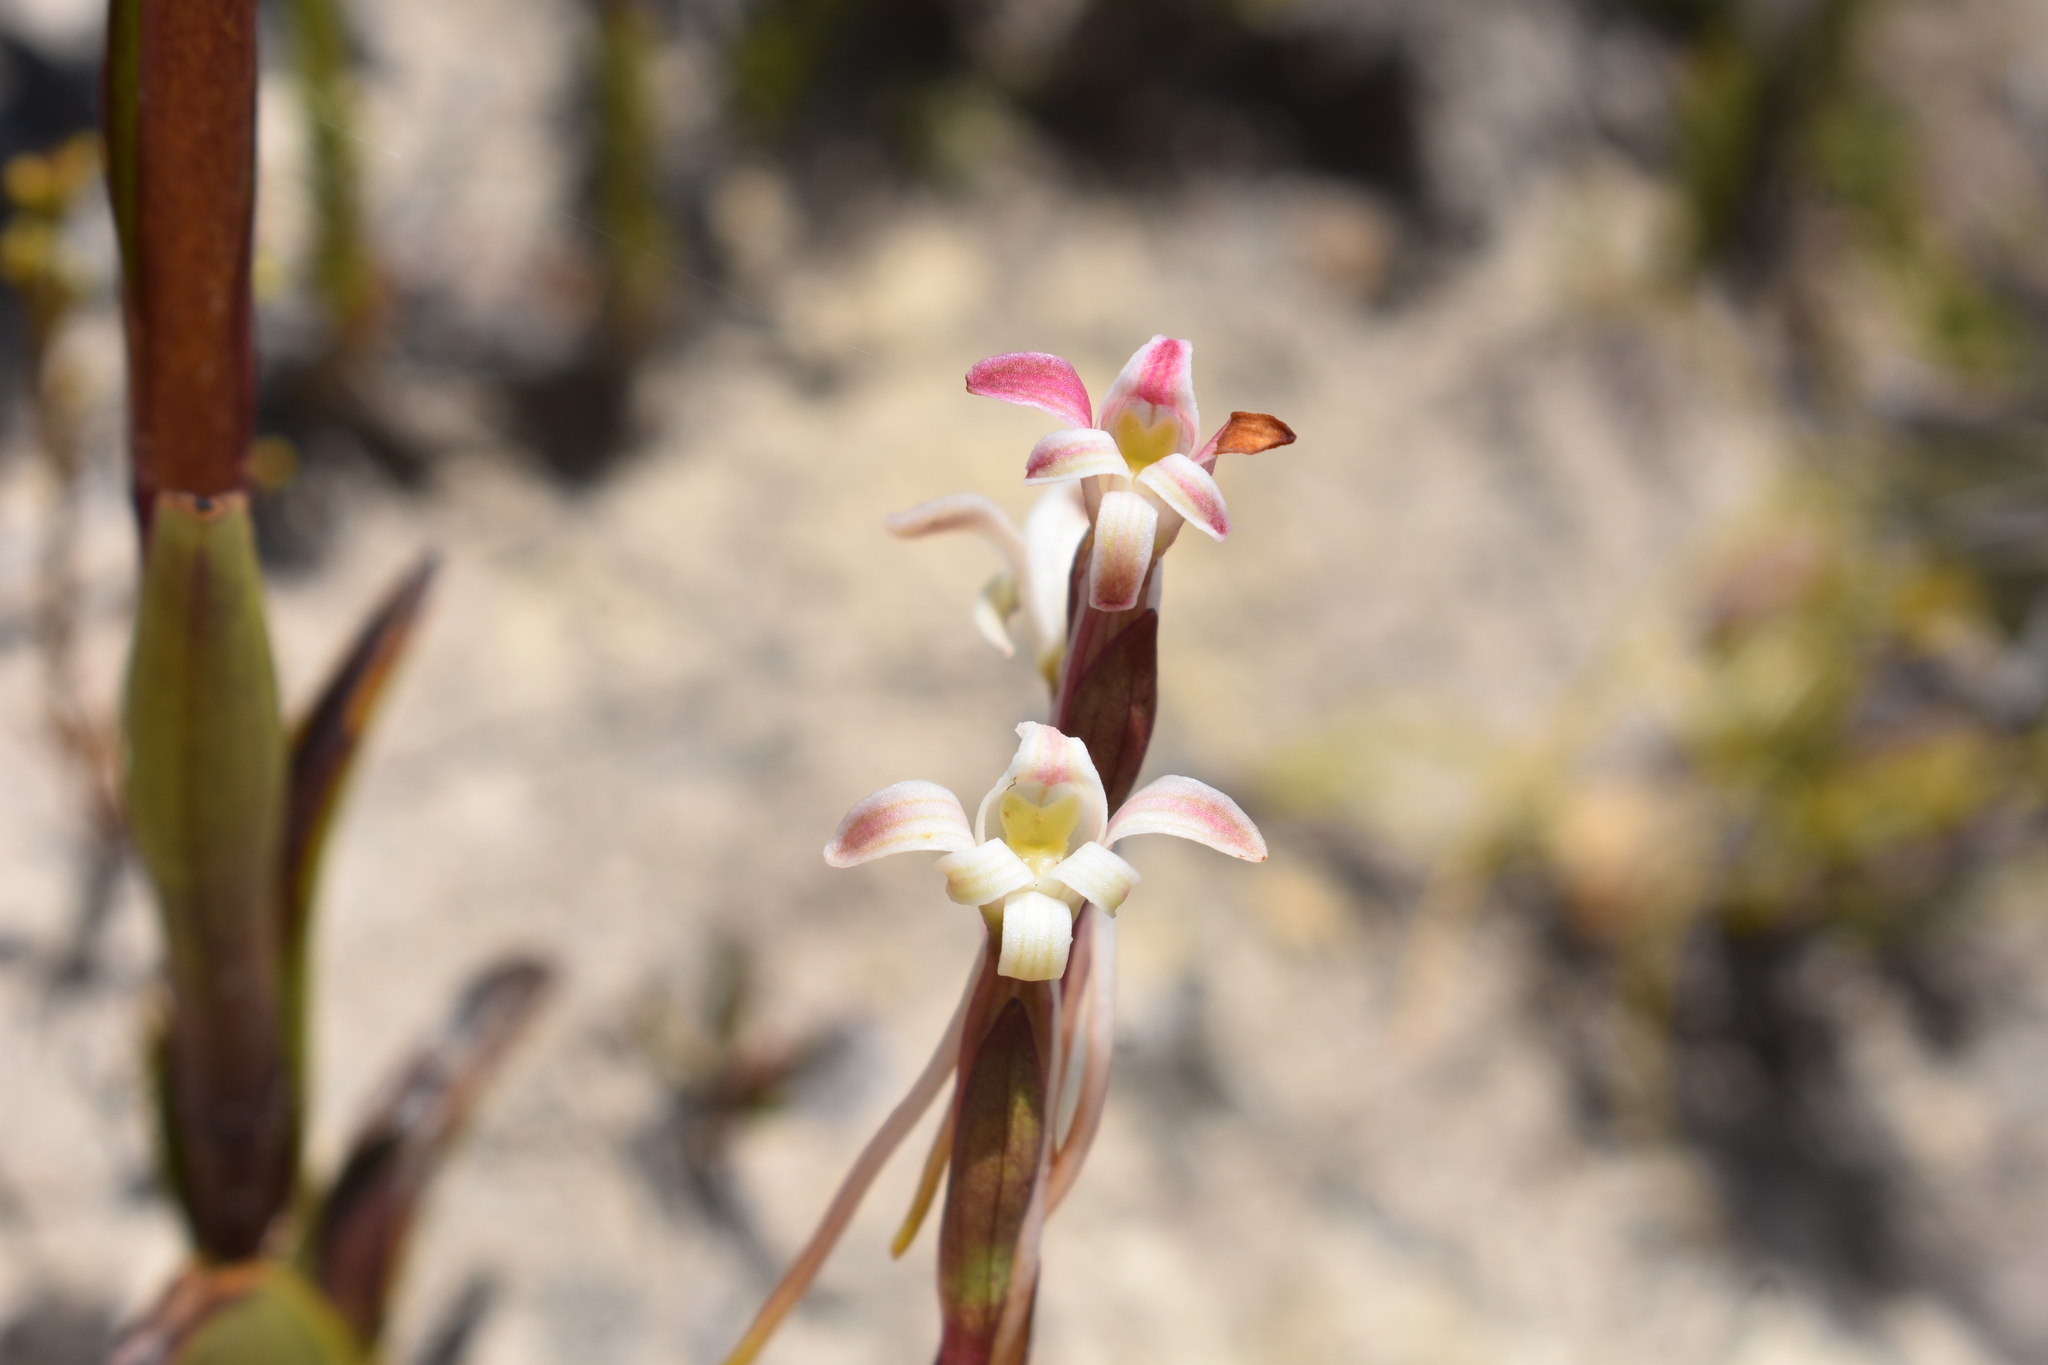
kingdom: Plantae
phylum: Tracheophyta
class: Liliopsida
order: Asparagales
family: Orchidaceae
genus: Satyrium
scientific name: Satyrium stenopetalum
